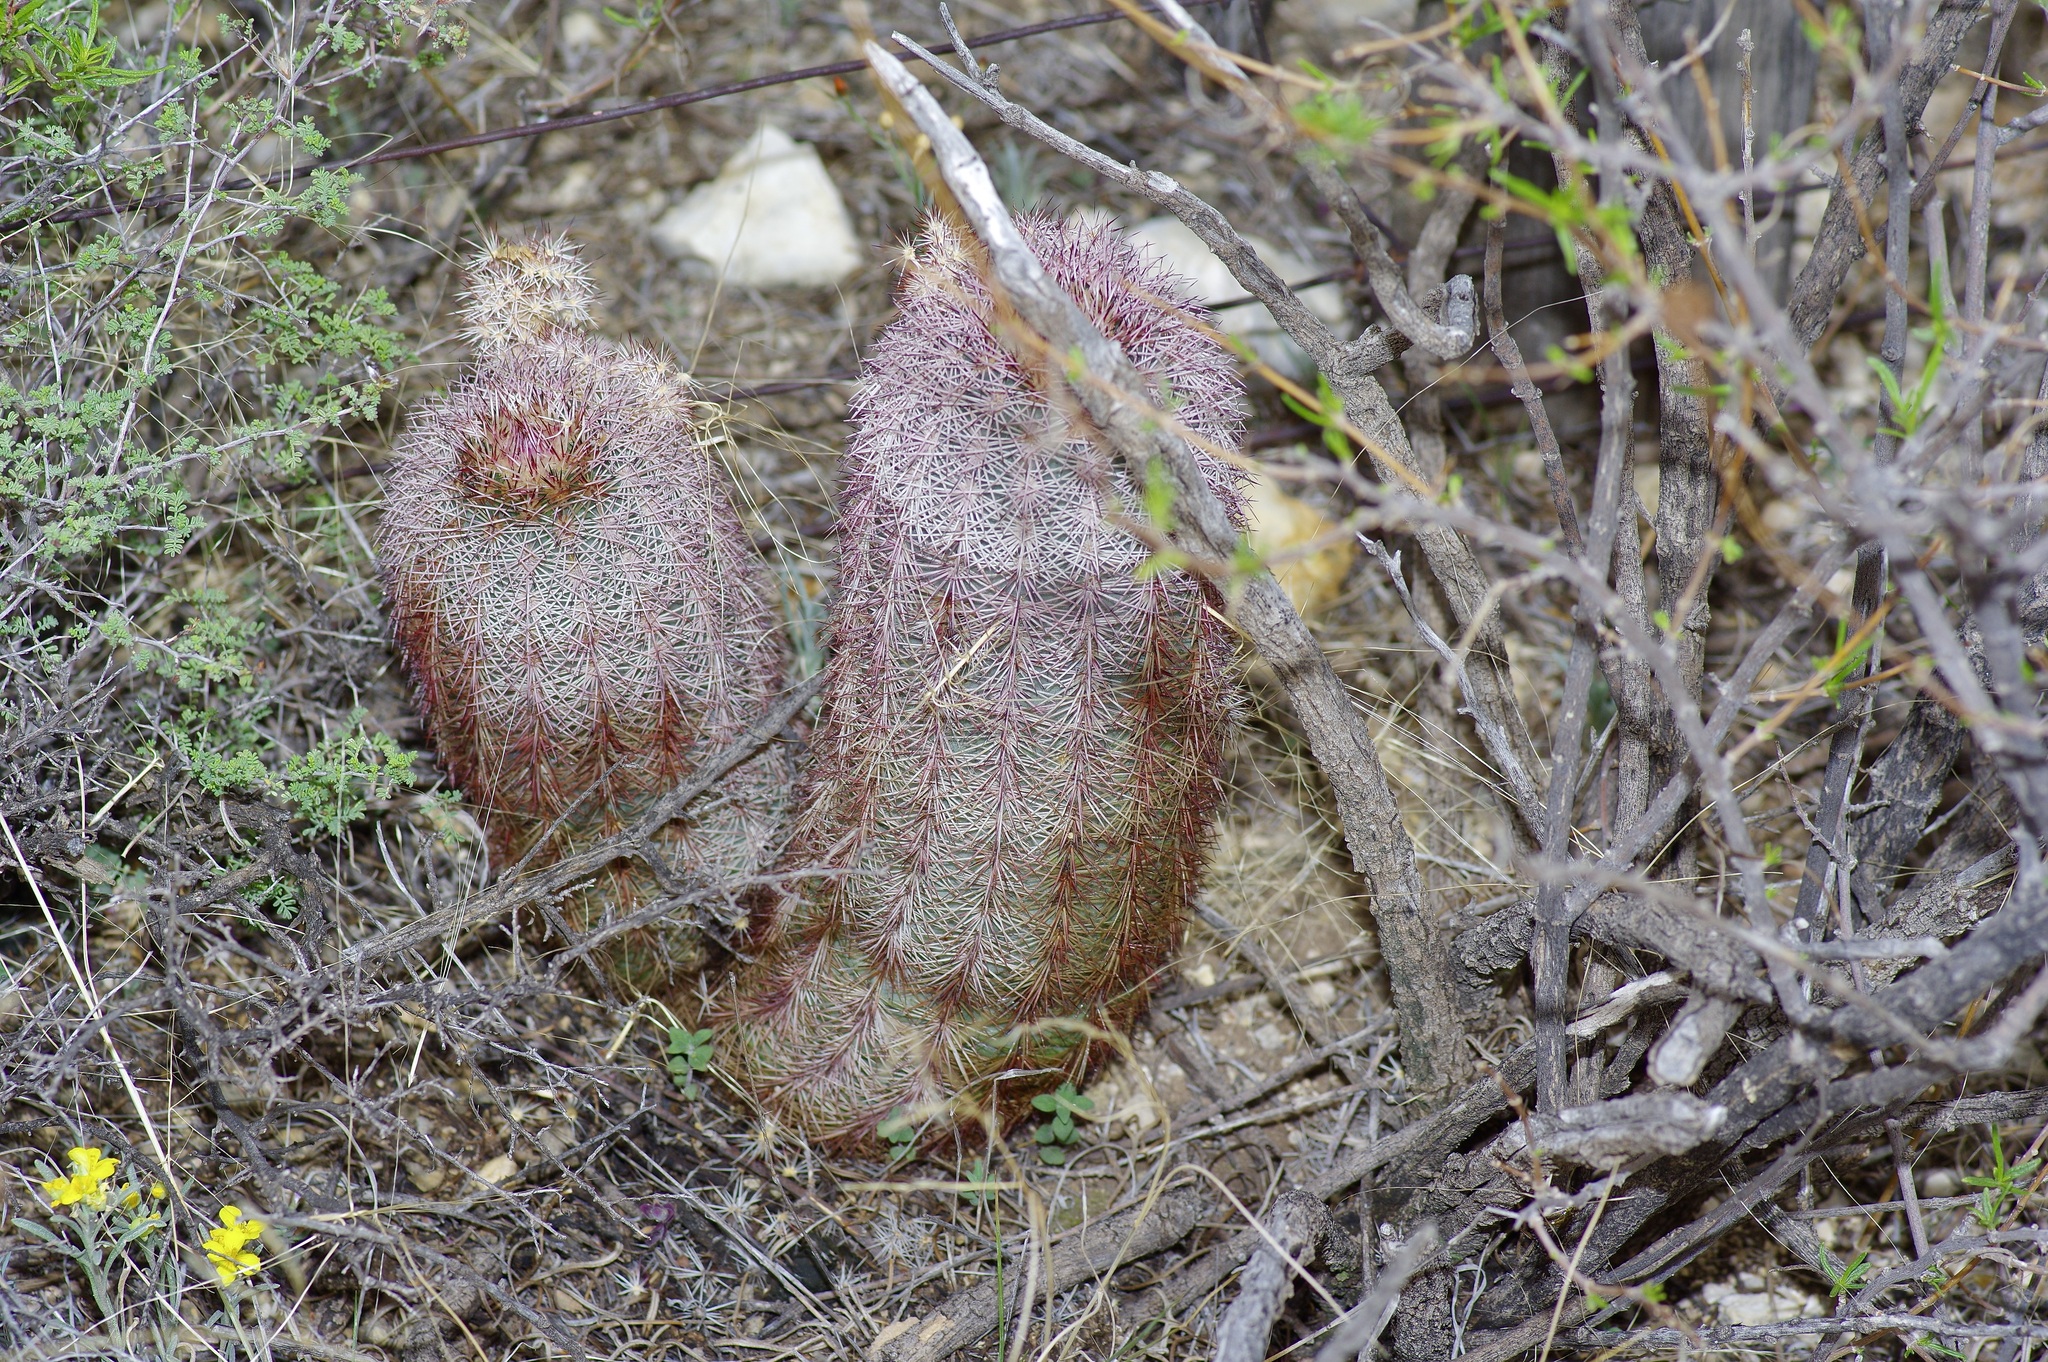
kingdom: Plantae
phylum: Tracheophyta
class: Magnoliopsida
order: Caryophyllales
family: Cactaceae
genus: Echinocereus
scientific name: Echinocereus dasyacanthus
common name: Spiny hedgehog cactus
